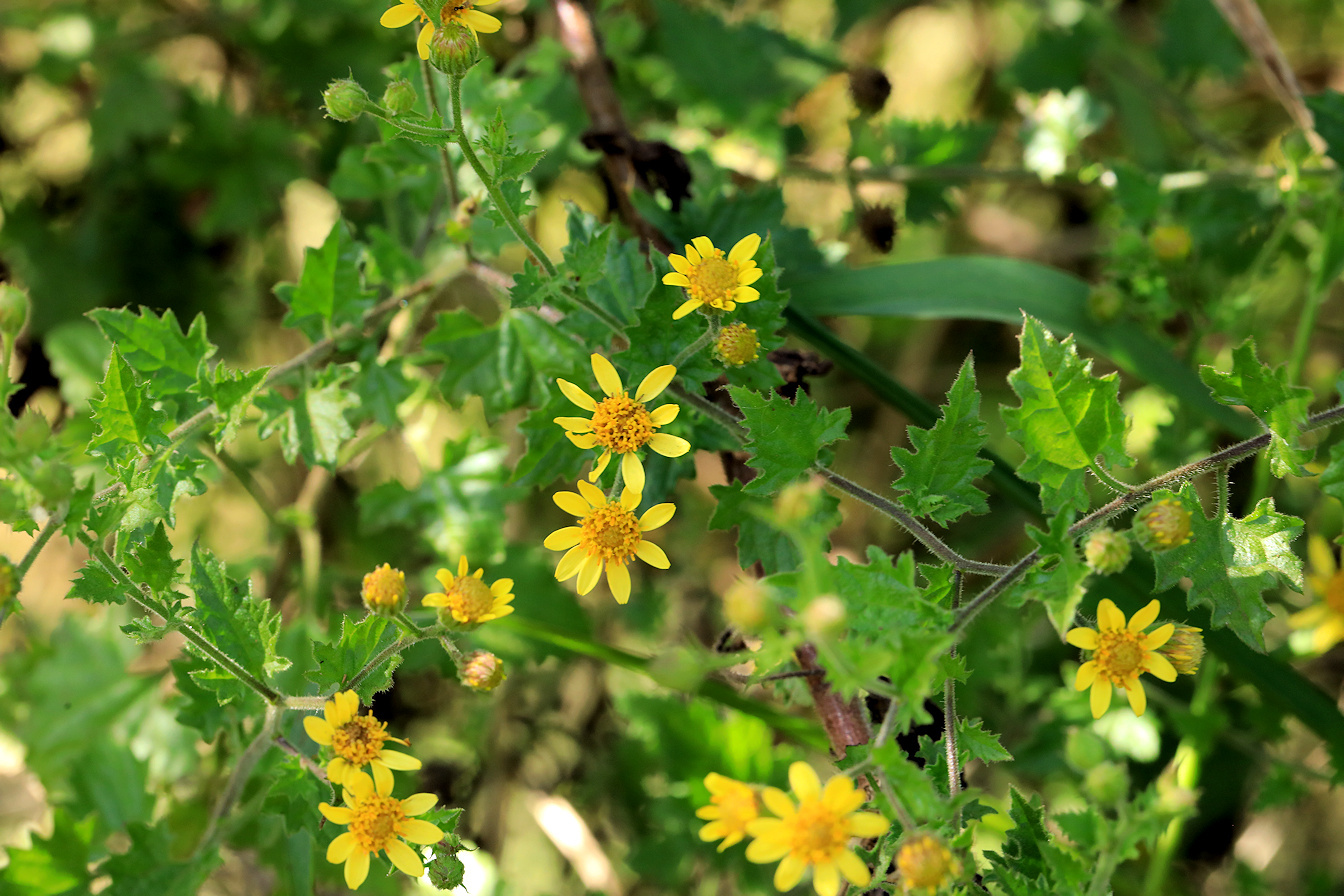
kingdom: Plantae
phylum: Tracheophyta
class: Magnoliopsida
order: Asterales
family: Asteraceae
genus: Anisopappus
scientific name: Anisopappus schinzii
